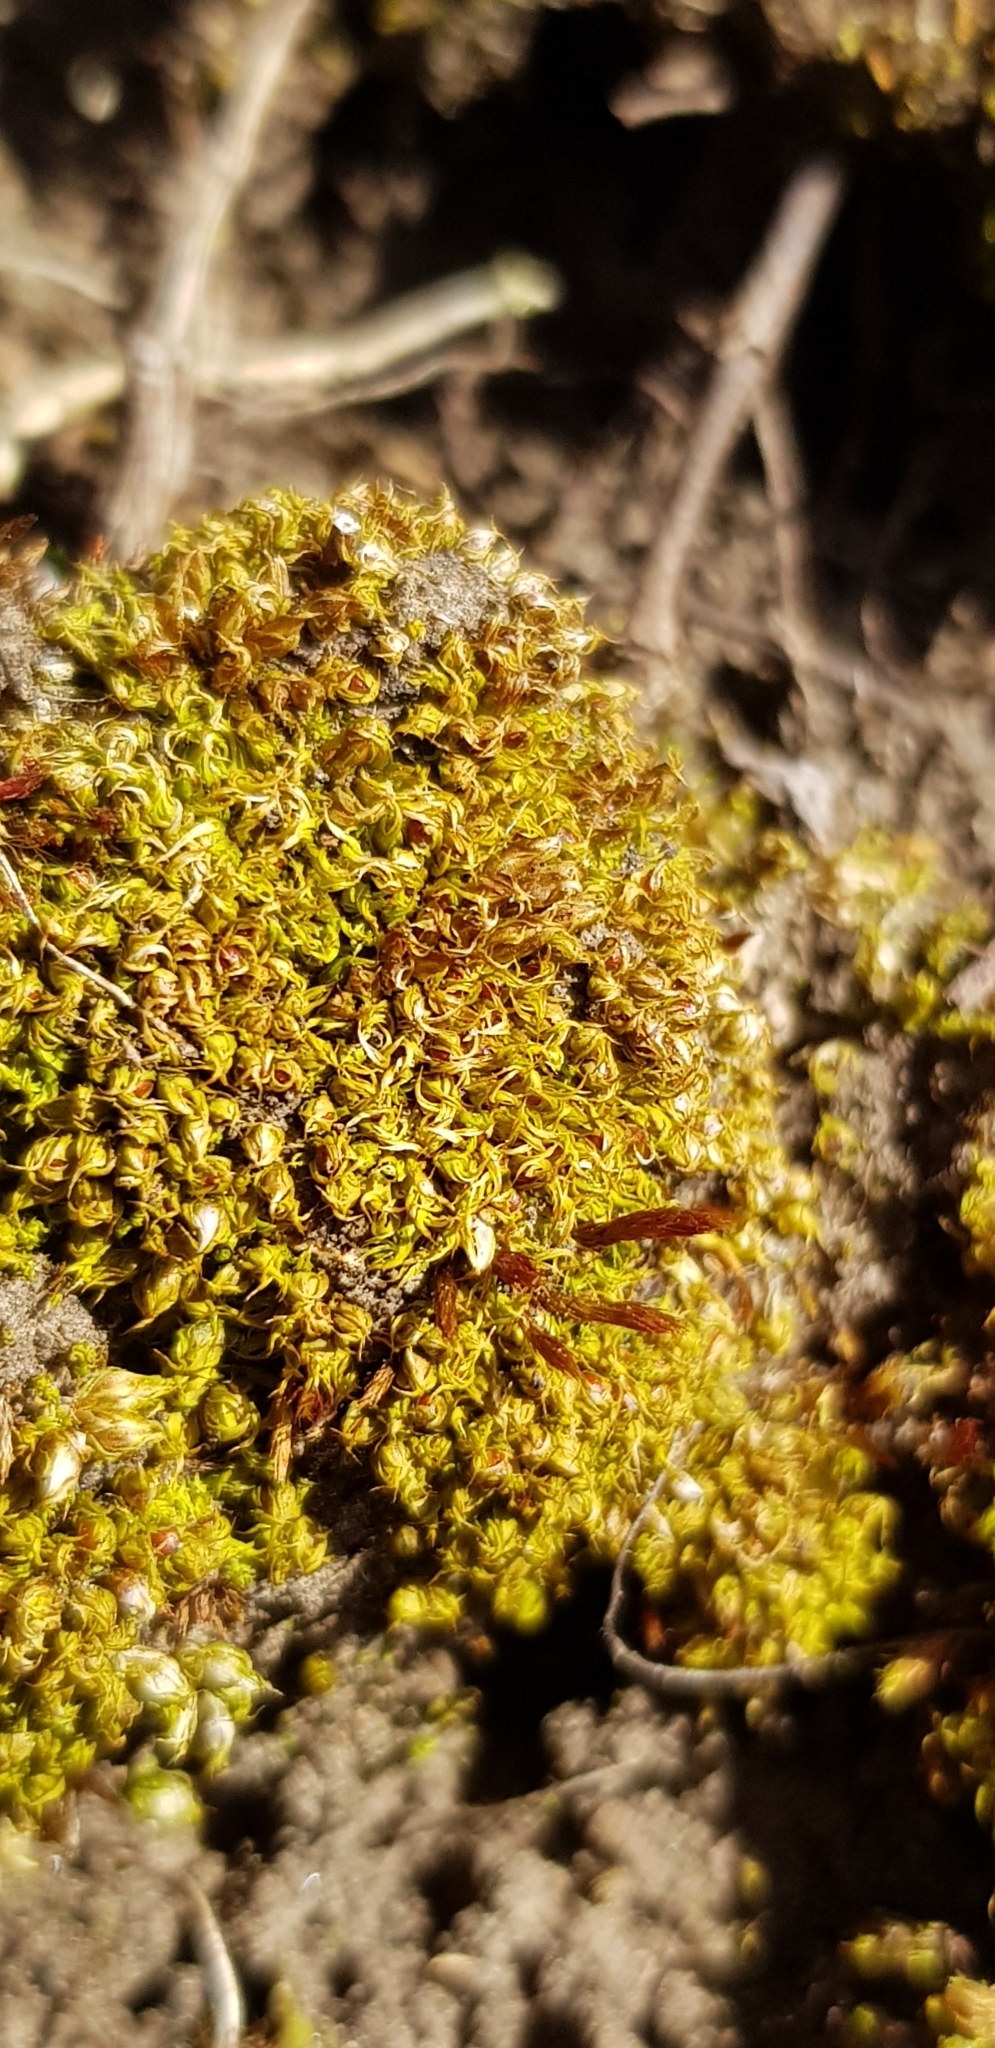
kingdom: Plantae
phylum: Bryophyta
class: Bryopsida
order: Pottiales
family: Pottiaceae
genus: Tortula
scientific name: Tortula acaulon
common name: Cuspidate earth moss
